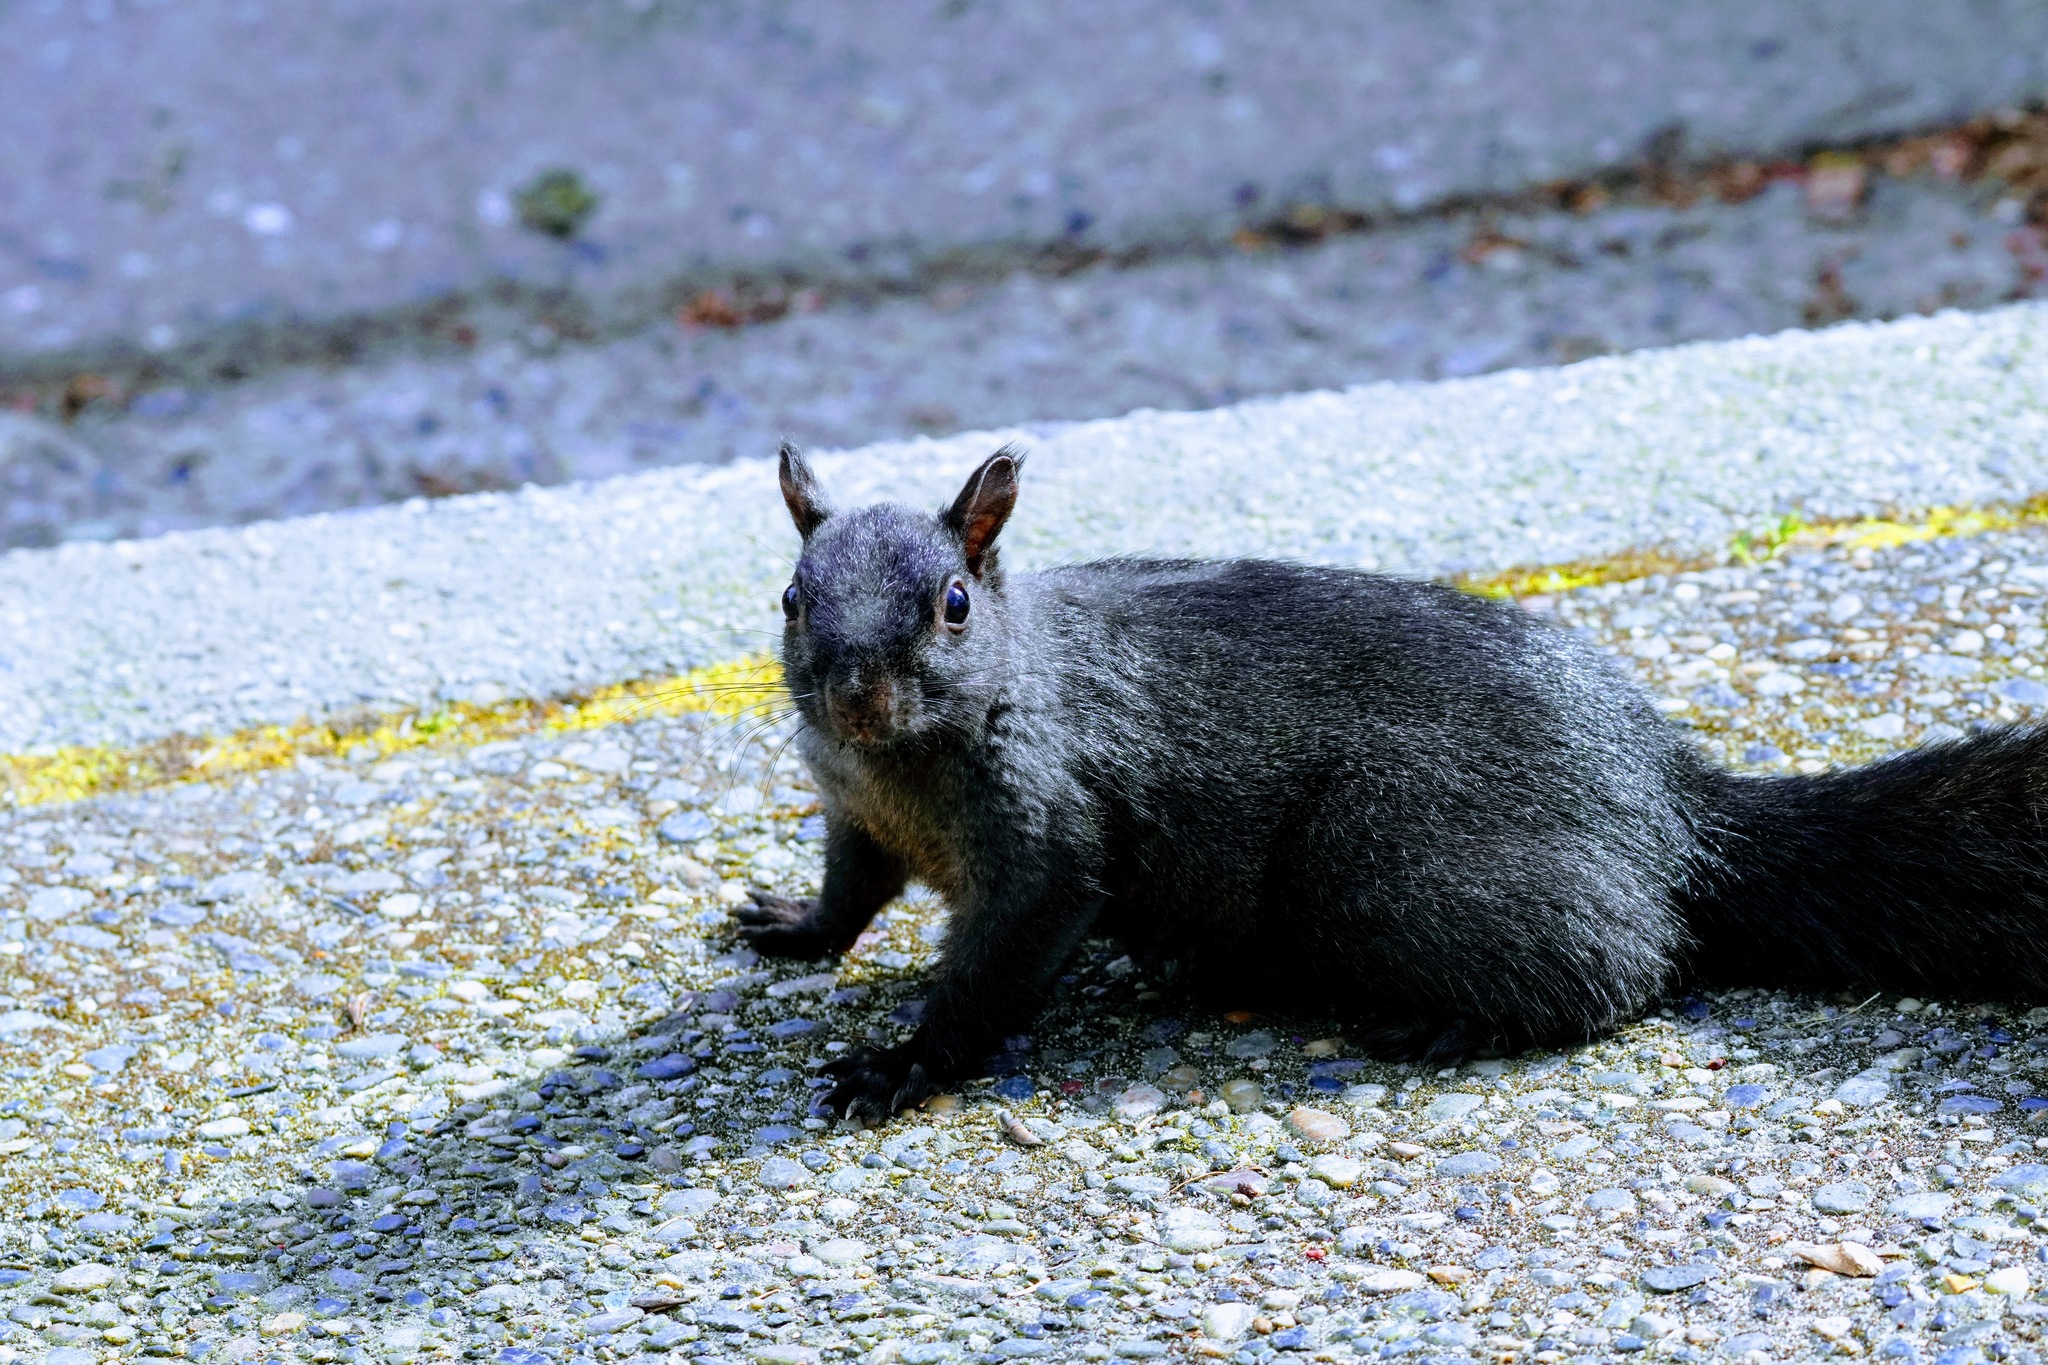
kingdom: Animalia
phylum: Chordata
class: Mammalia
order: Rodentia
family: Sciuridae
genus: Sciurus
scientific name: Sciurus carolinensis
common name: Eastern gray squirrel
